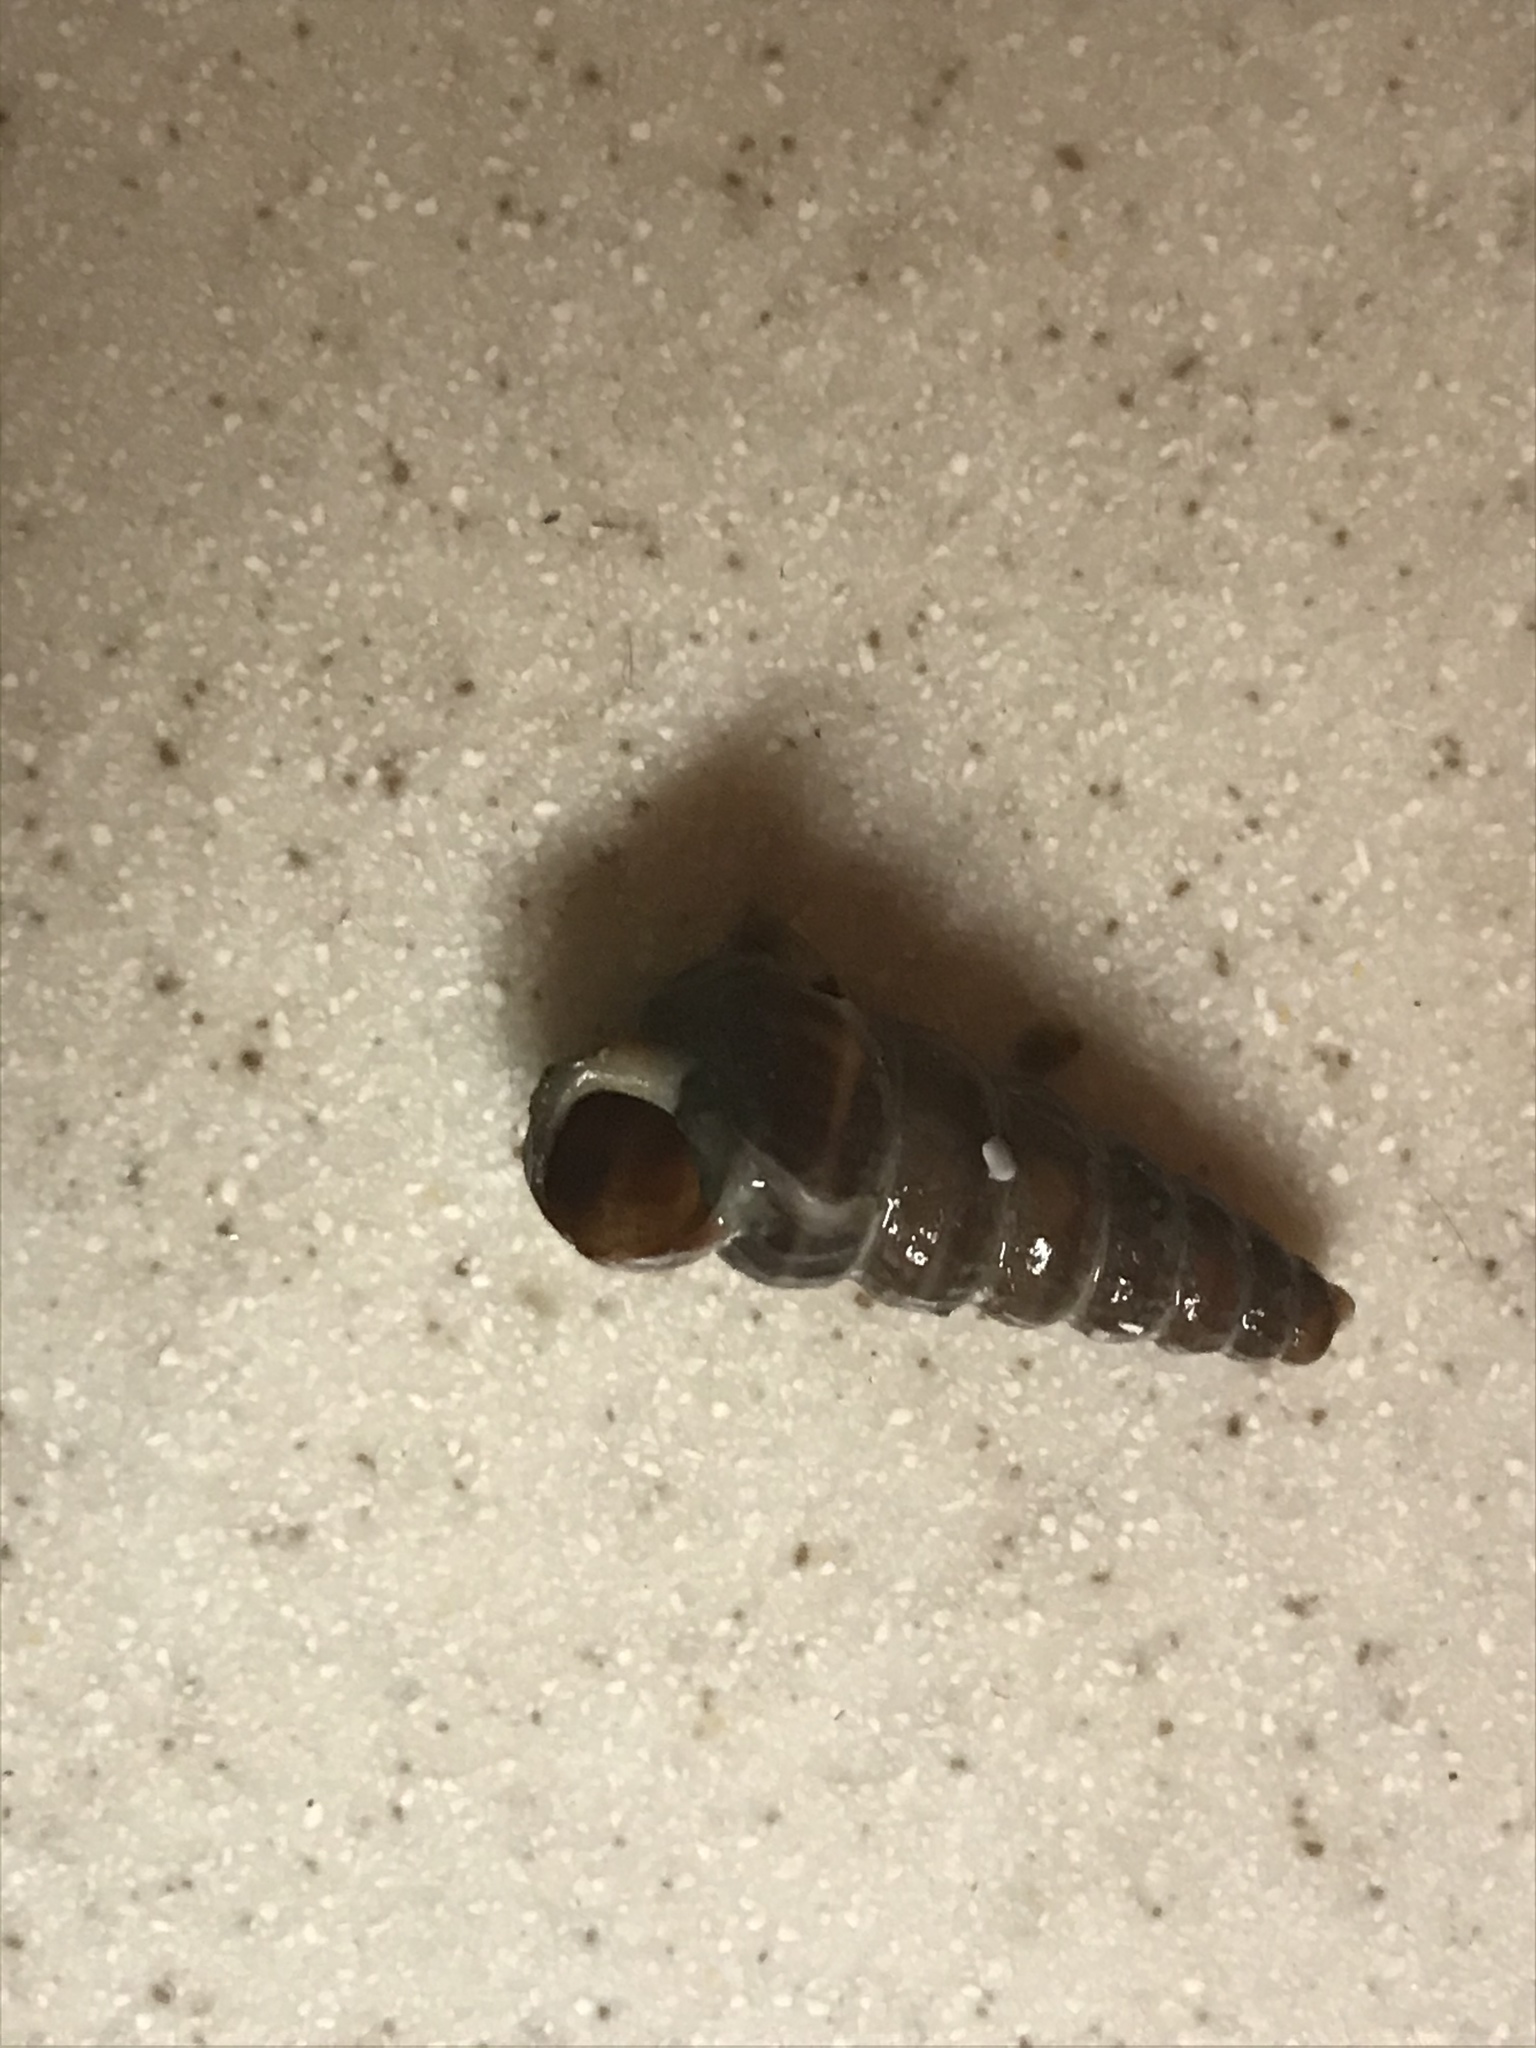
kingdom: Animalia
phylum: Mollusca
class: Gastropoda
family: Potamididae
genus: Cerithideopsis
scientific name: Cerithideopsis californica
